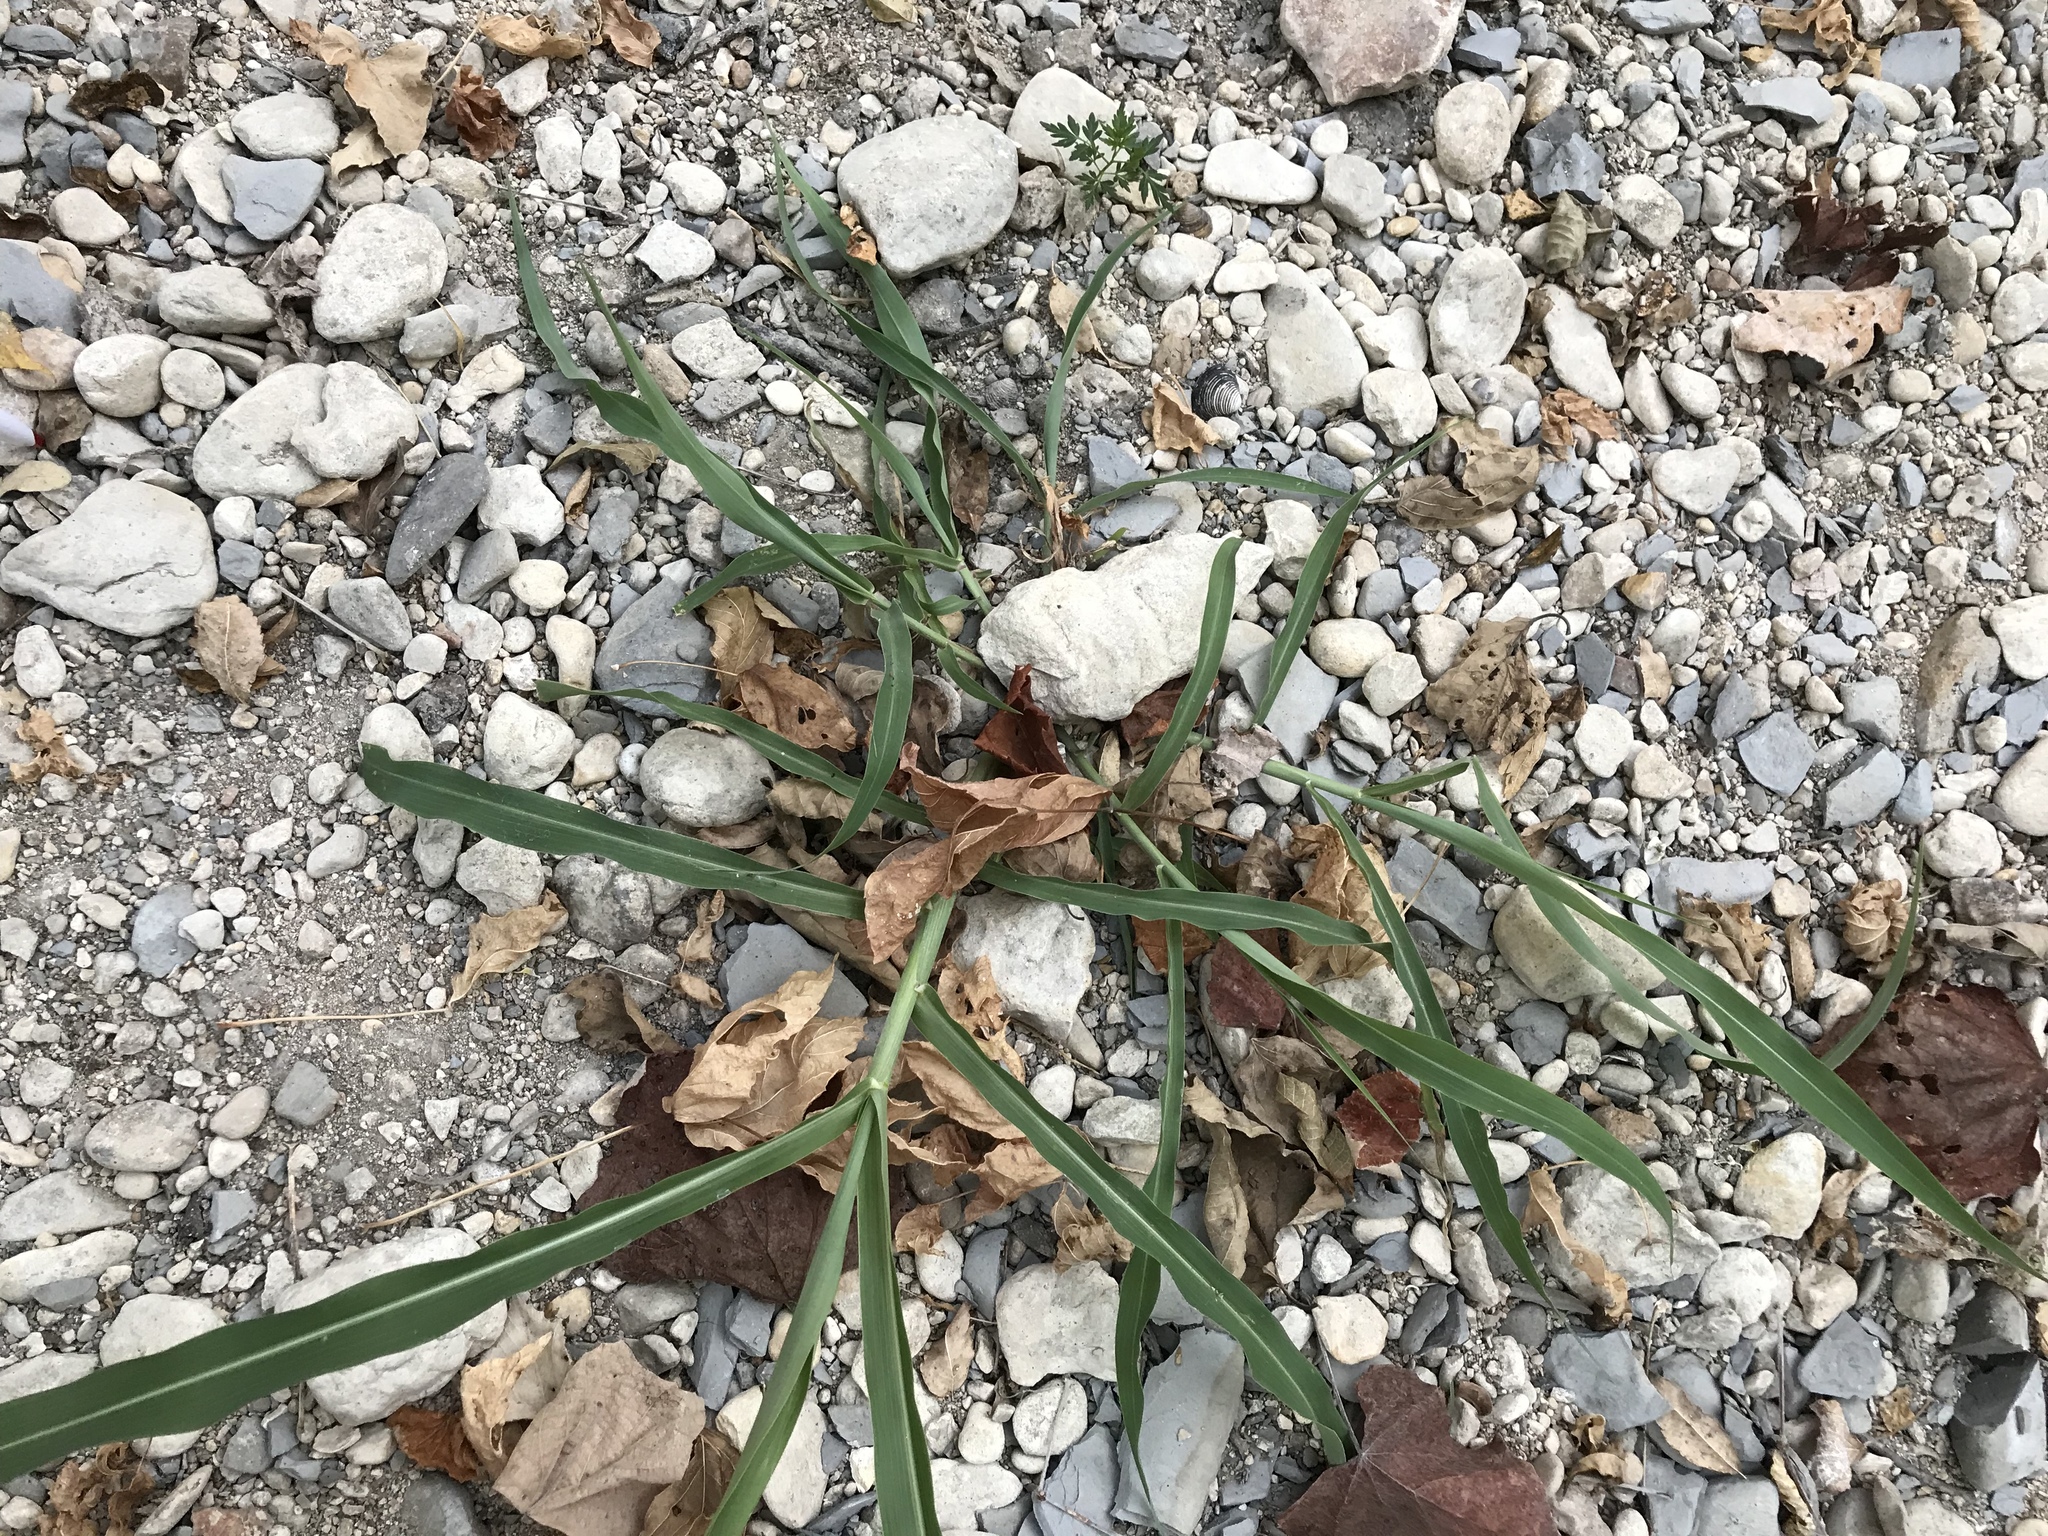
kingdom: Plantae
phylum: Tracheophyta
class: Liliopsida
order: Poales
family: Poaceae
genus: Sorghum
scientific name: Sorghum halepense
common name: Johnson-grass
